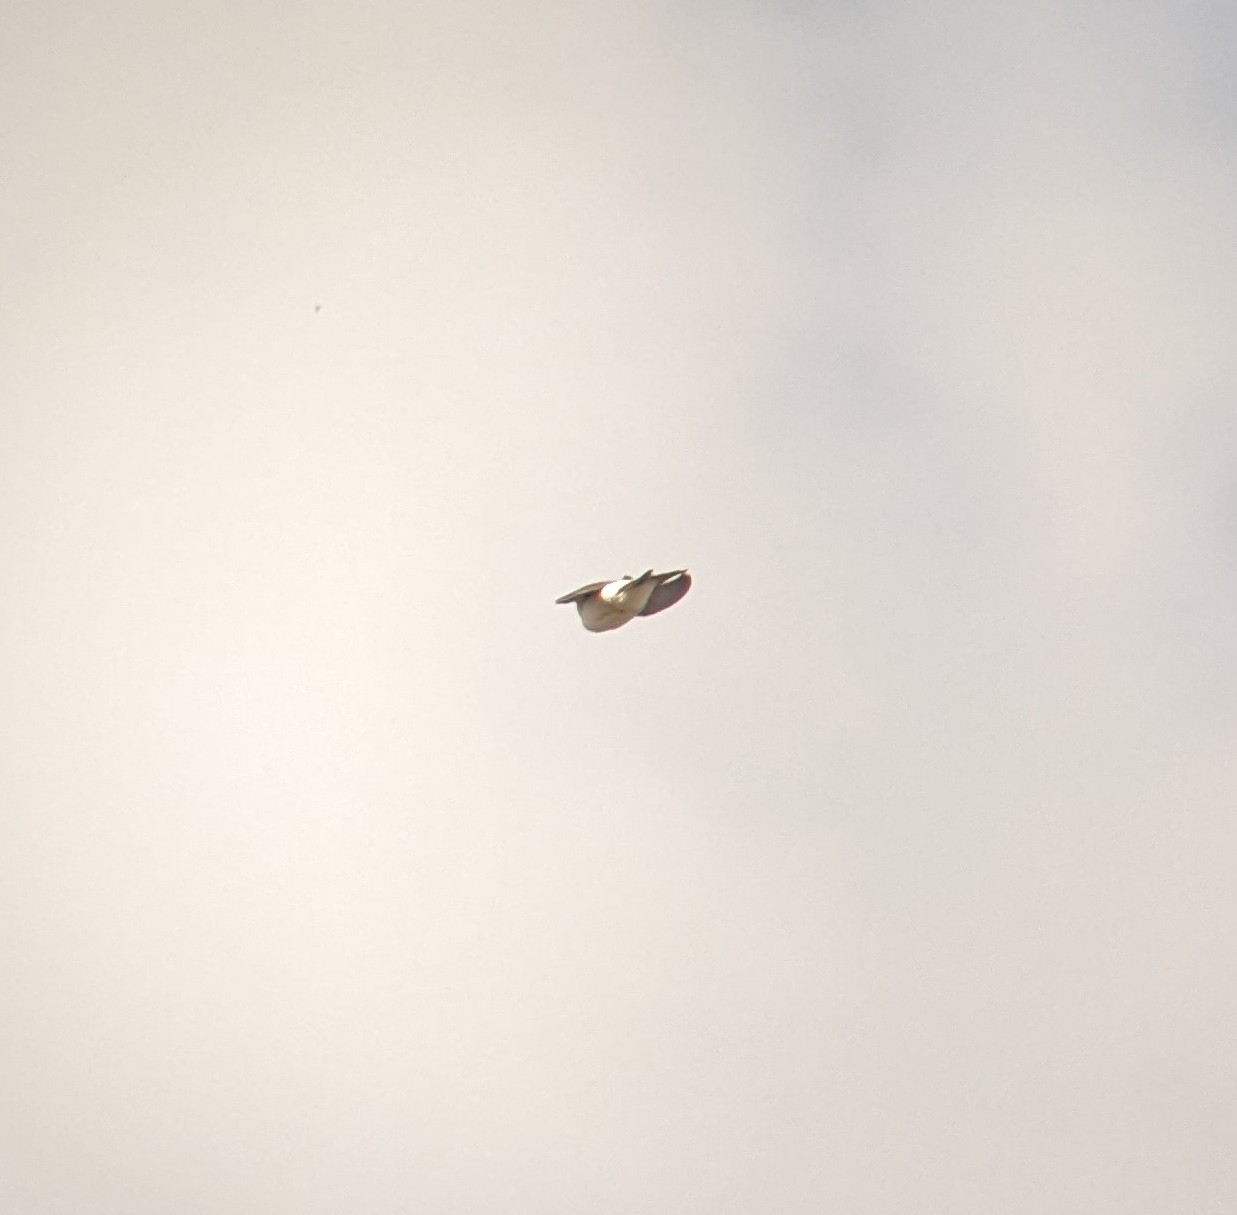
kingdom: Animalia
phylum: Chordata
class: Aves
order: Passeriformes
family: Hirundinidae
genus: Delichon
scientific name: Delichon urbicum
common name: Common house martin
